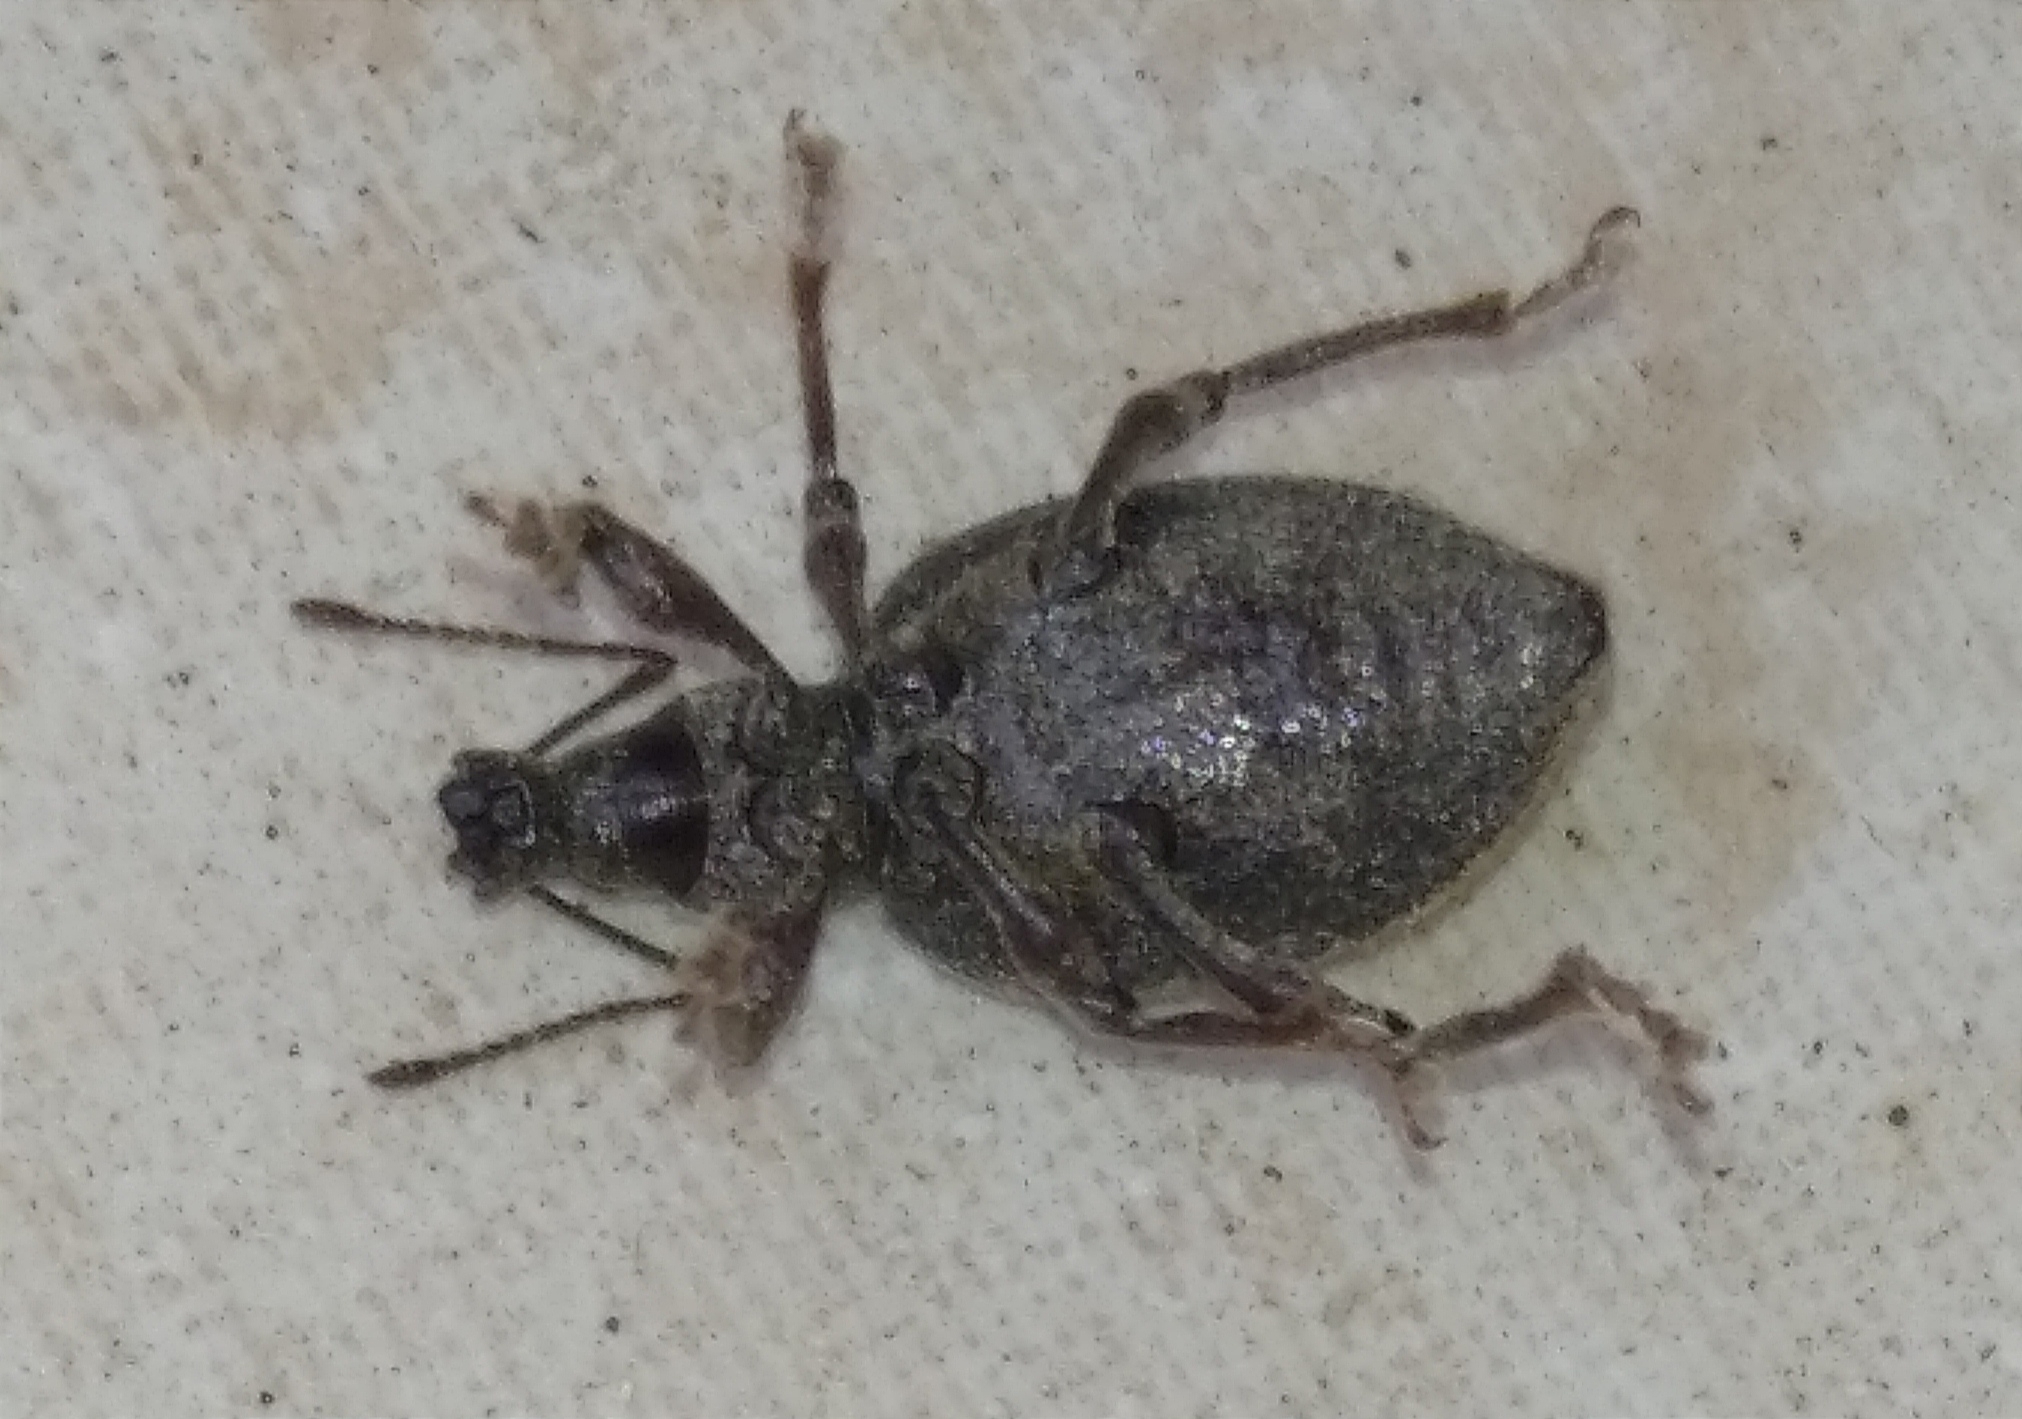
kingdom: Animalia
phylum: Arthropoda
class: Insecta
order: Coleoptera
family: Curculionidae
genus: Otiorhynchus
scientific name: Otiorhynchus aurifer
